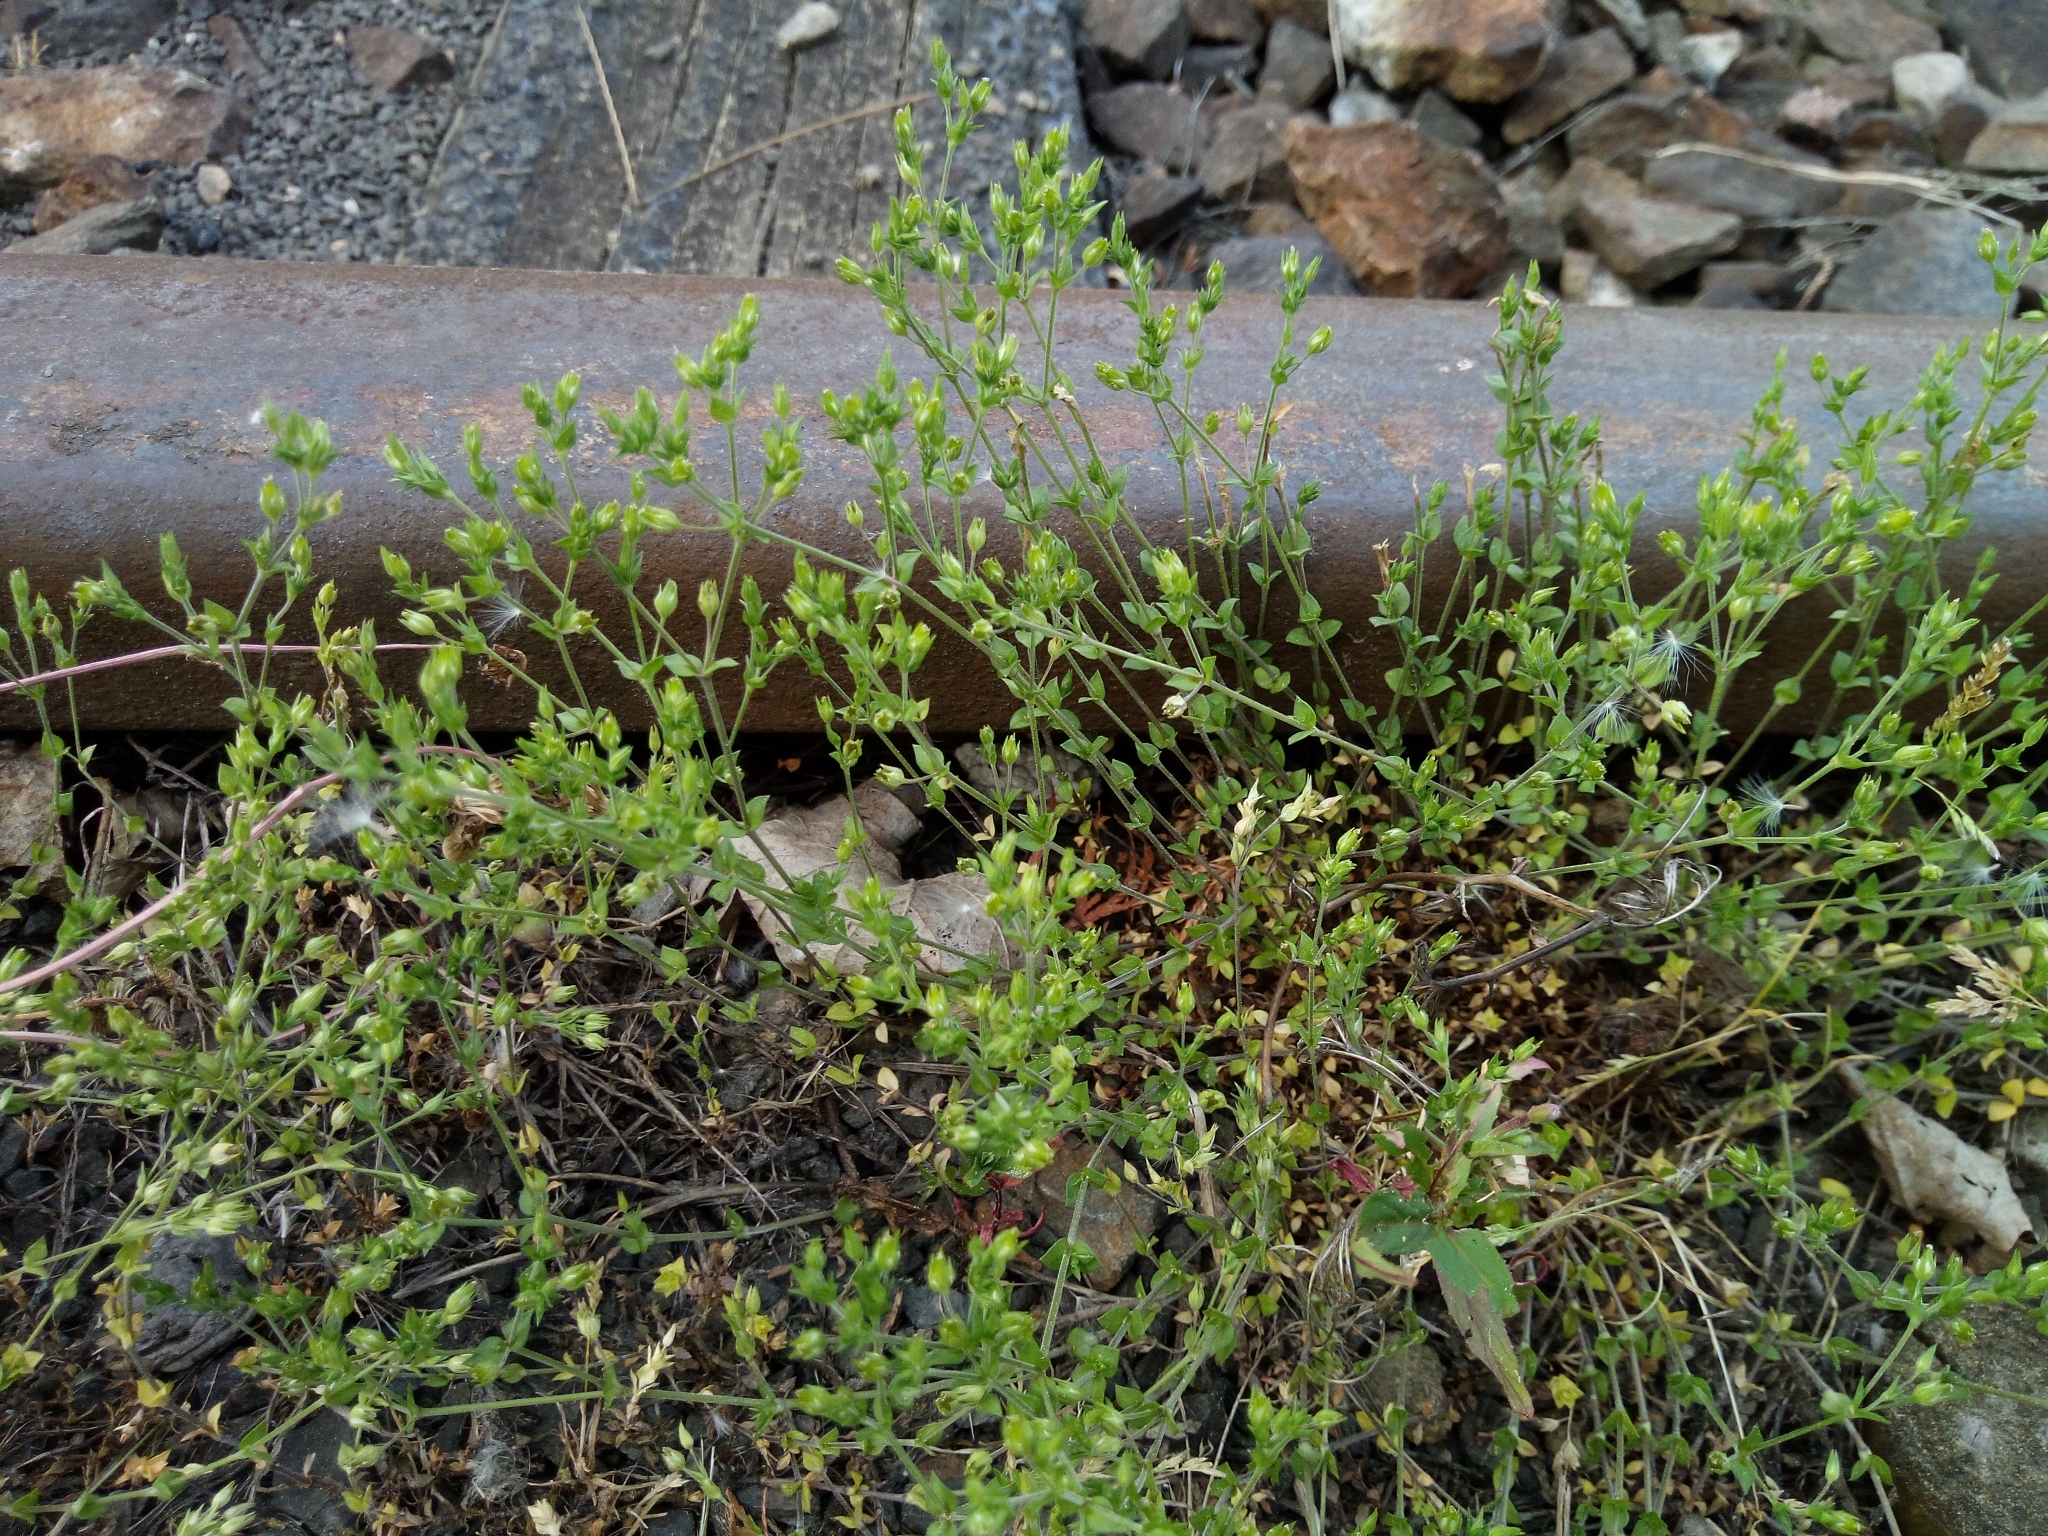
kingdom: Plantae
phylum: Tracheophyta
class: Magnoliopsida
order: Caryophyllales
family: Caryophyllaceae
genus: Arenaria
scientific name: Arenaria serpyllifolia
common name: Thyme-leaved sandwort
